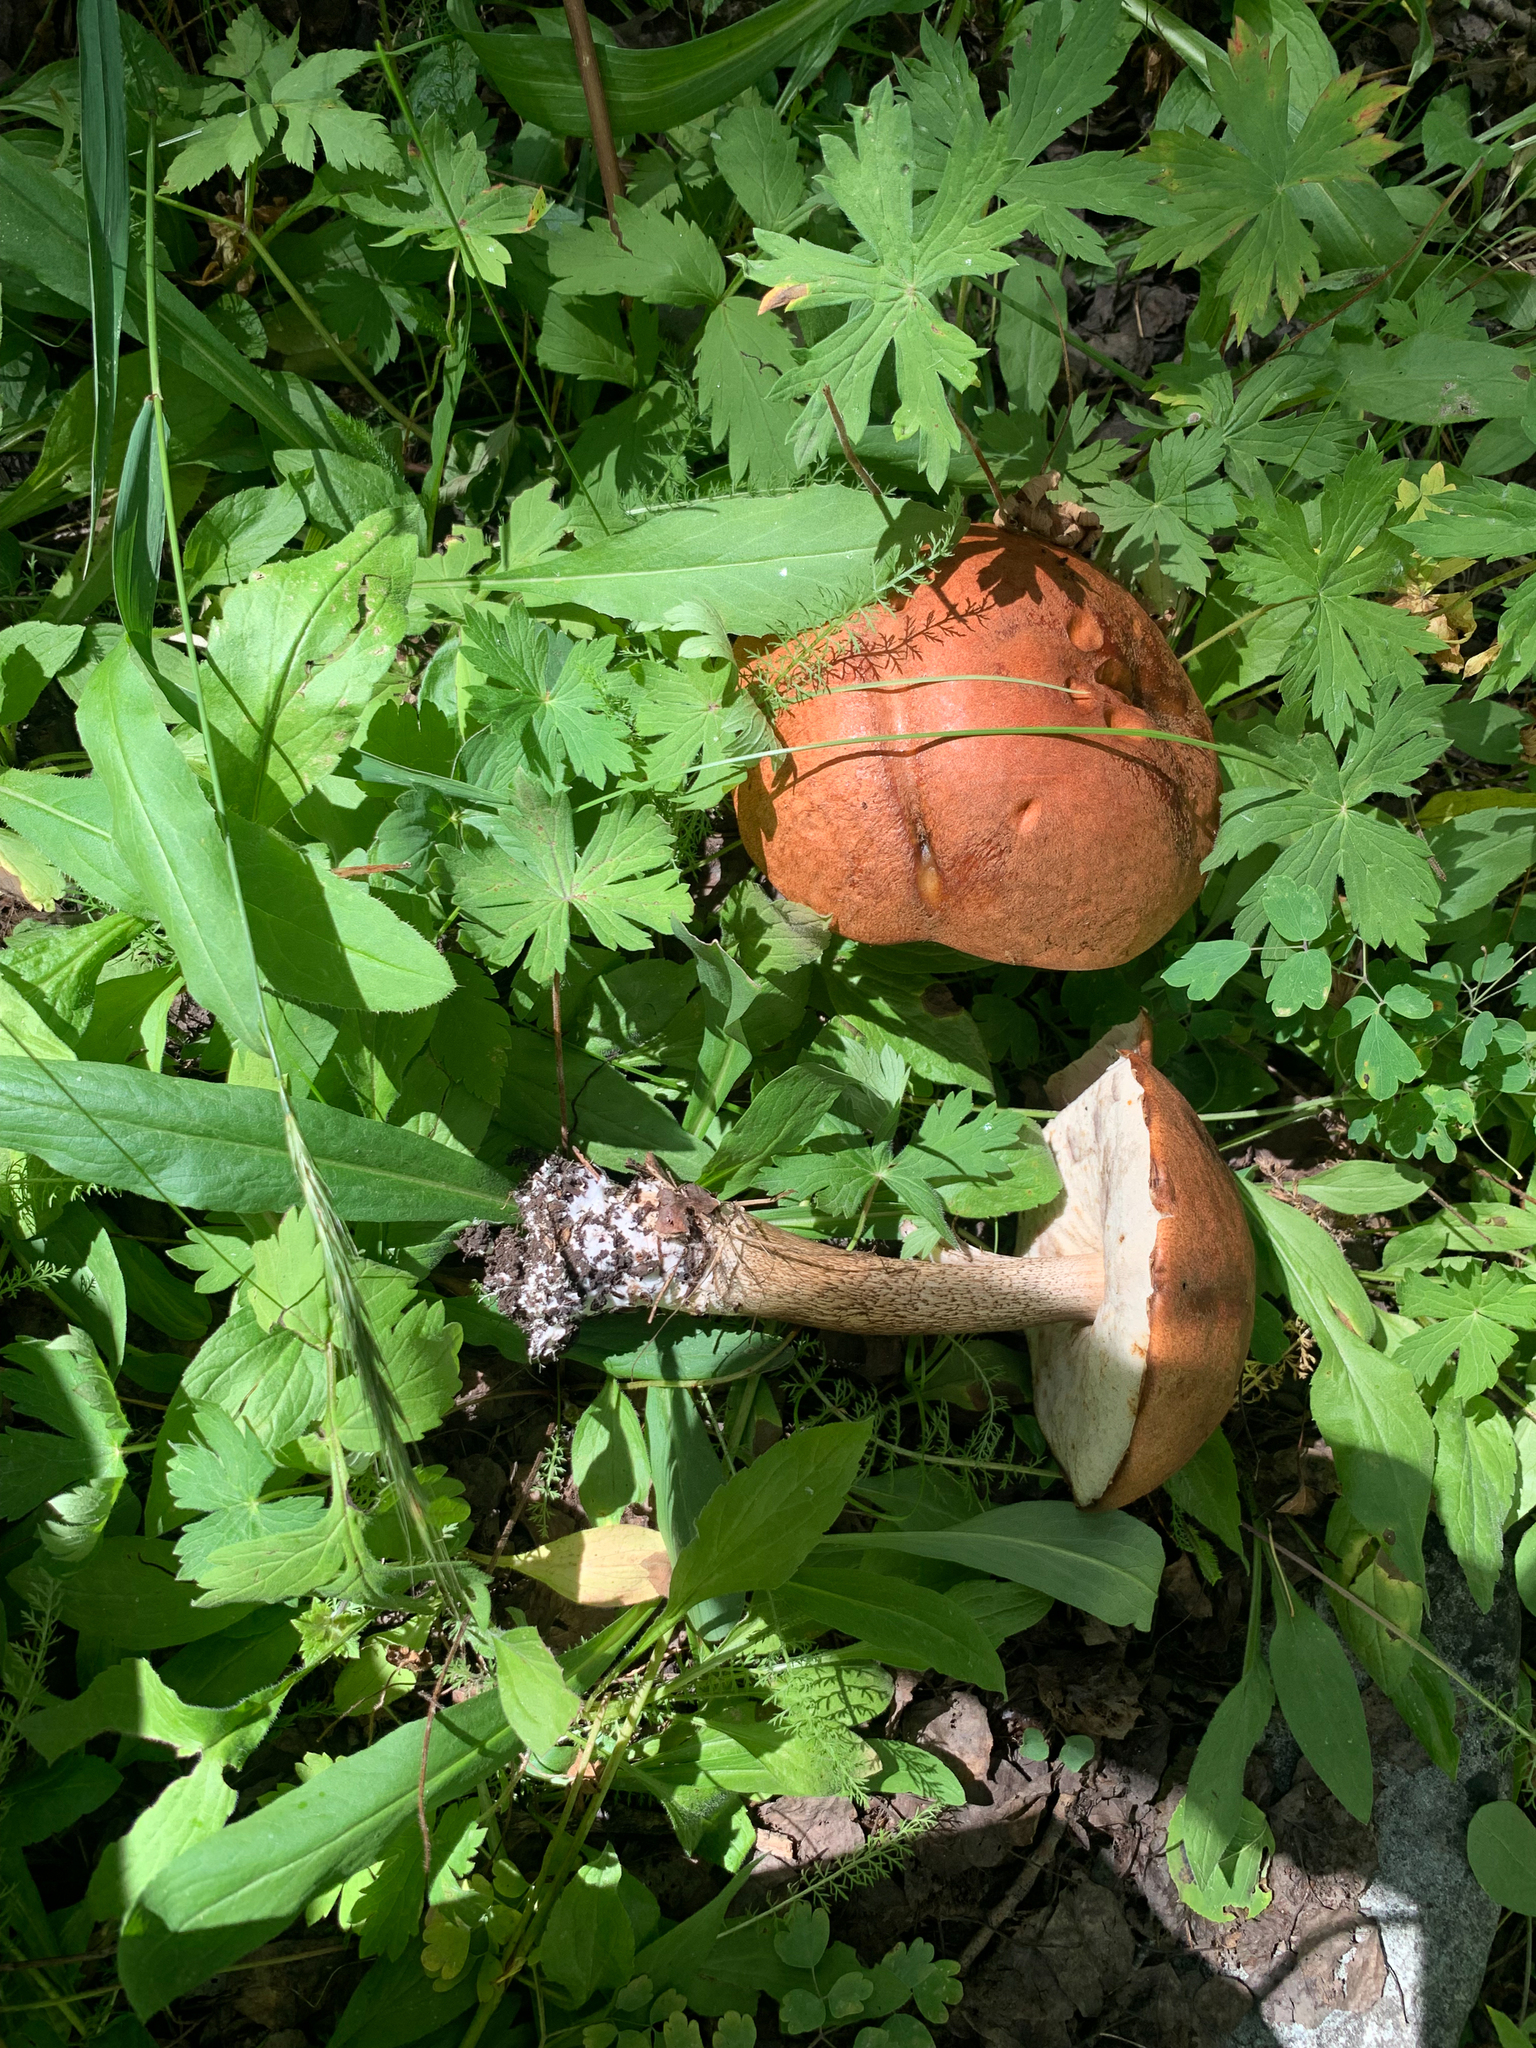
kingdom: Fungi
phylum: Basidiomycota
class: Agaricomycetes
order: Boletales
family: Boletaceae
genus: Leccinum
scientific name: Leccinum aurantiacum
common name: Orange bolete
